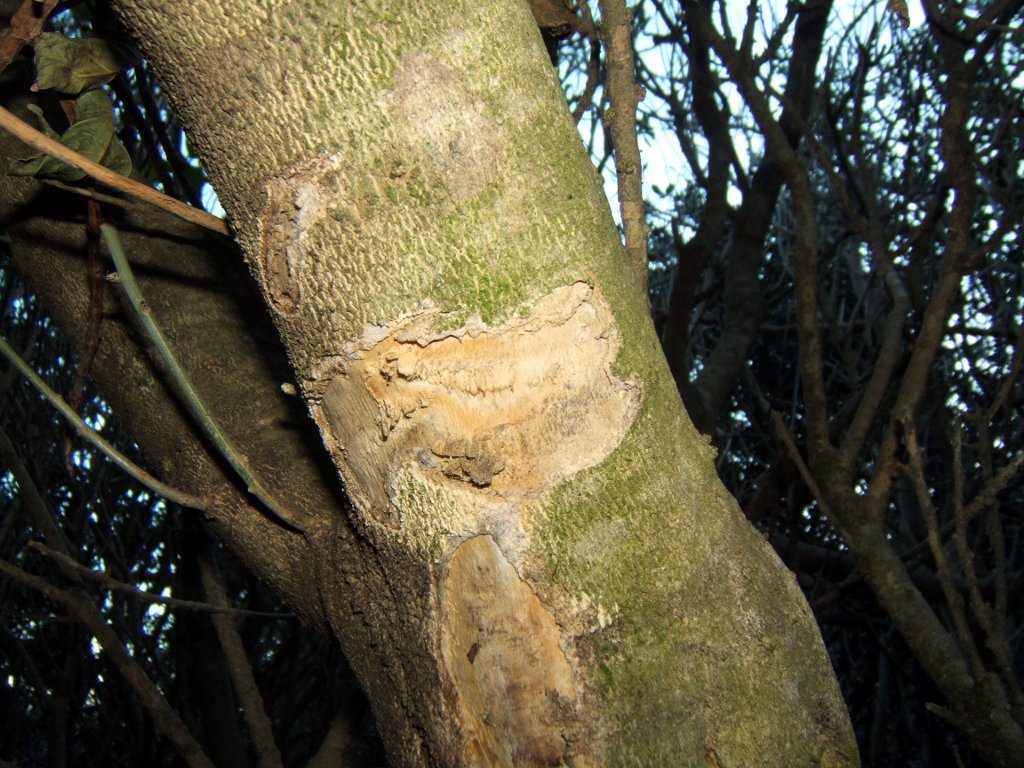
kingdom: Animalia
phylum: Chordata
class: Aves
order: Psittaciformes
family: Psittacidae
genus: Nestor
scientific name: Nestor meridionalis
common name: New zealand kaka
